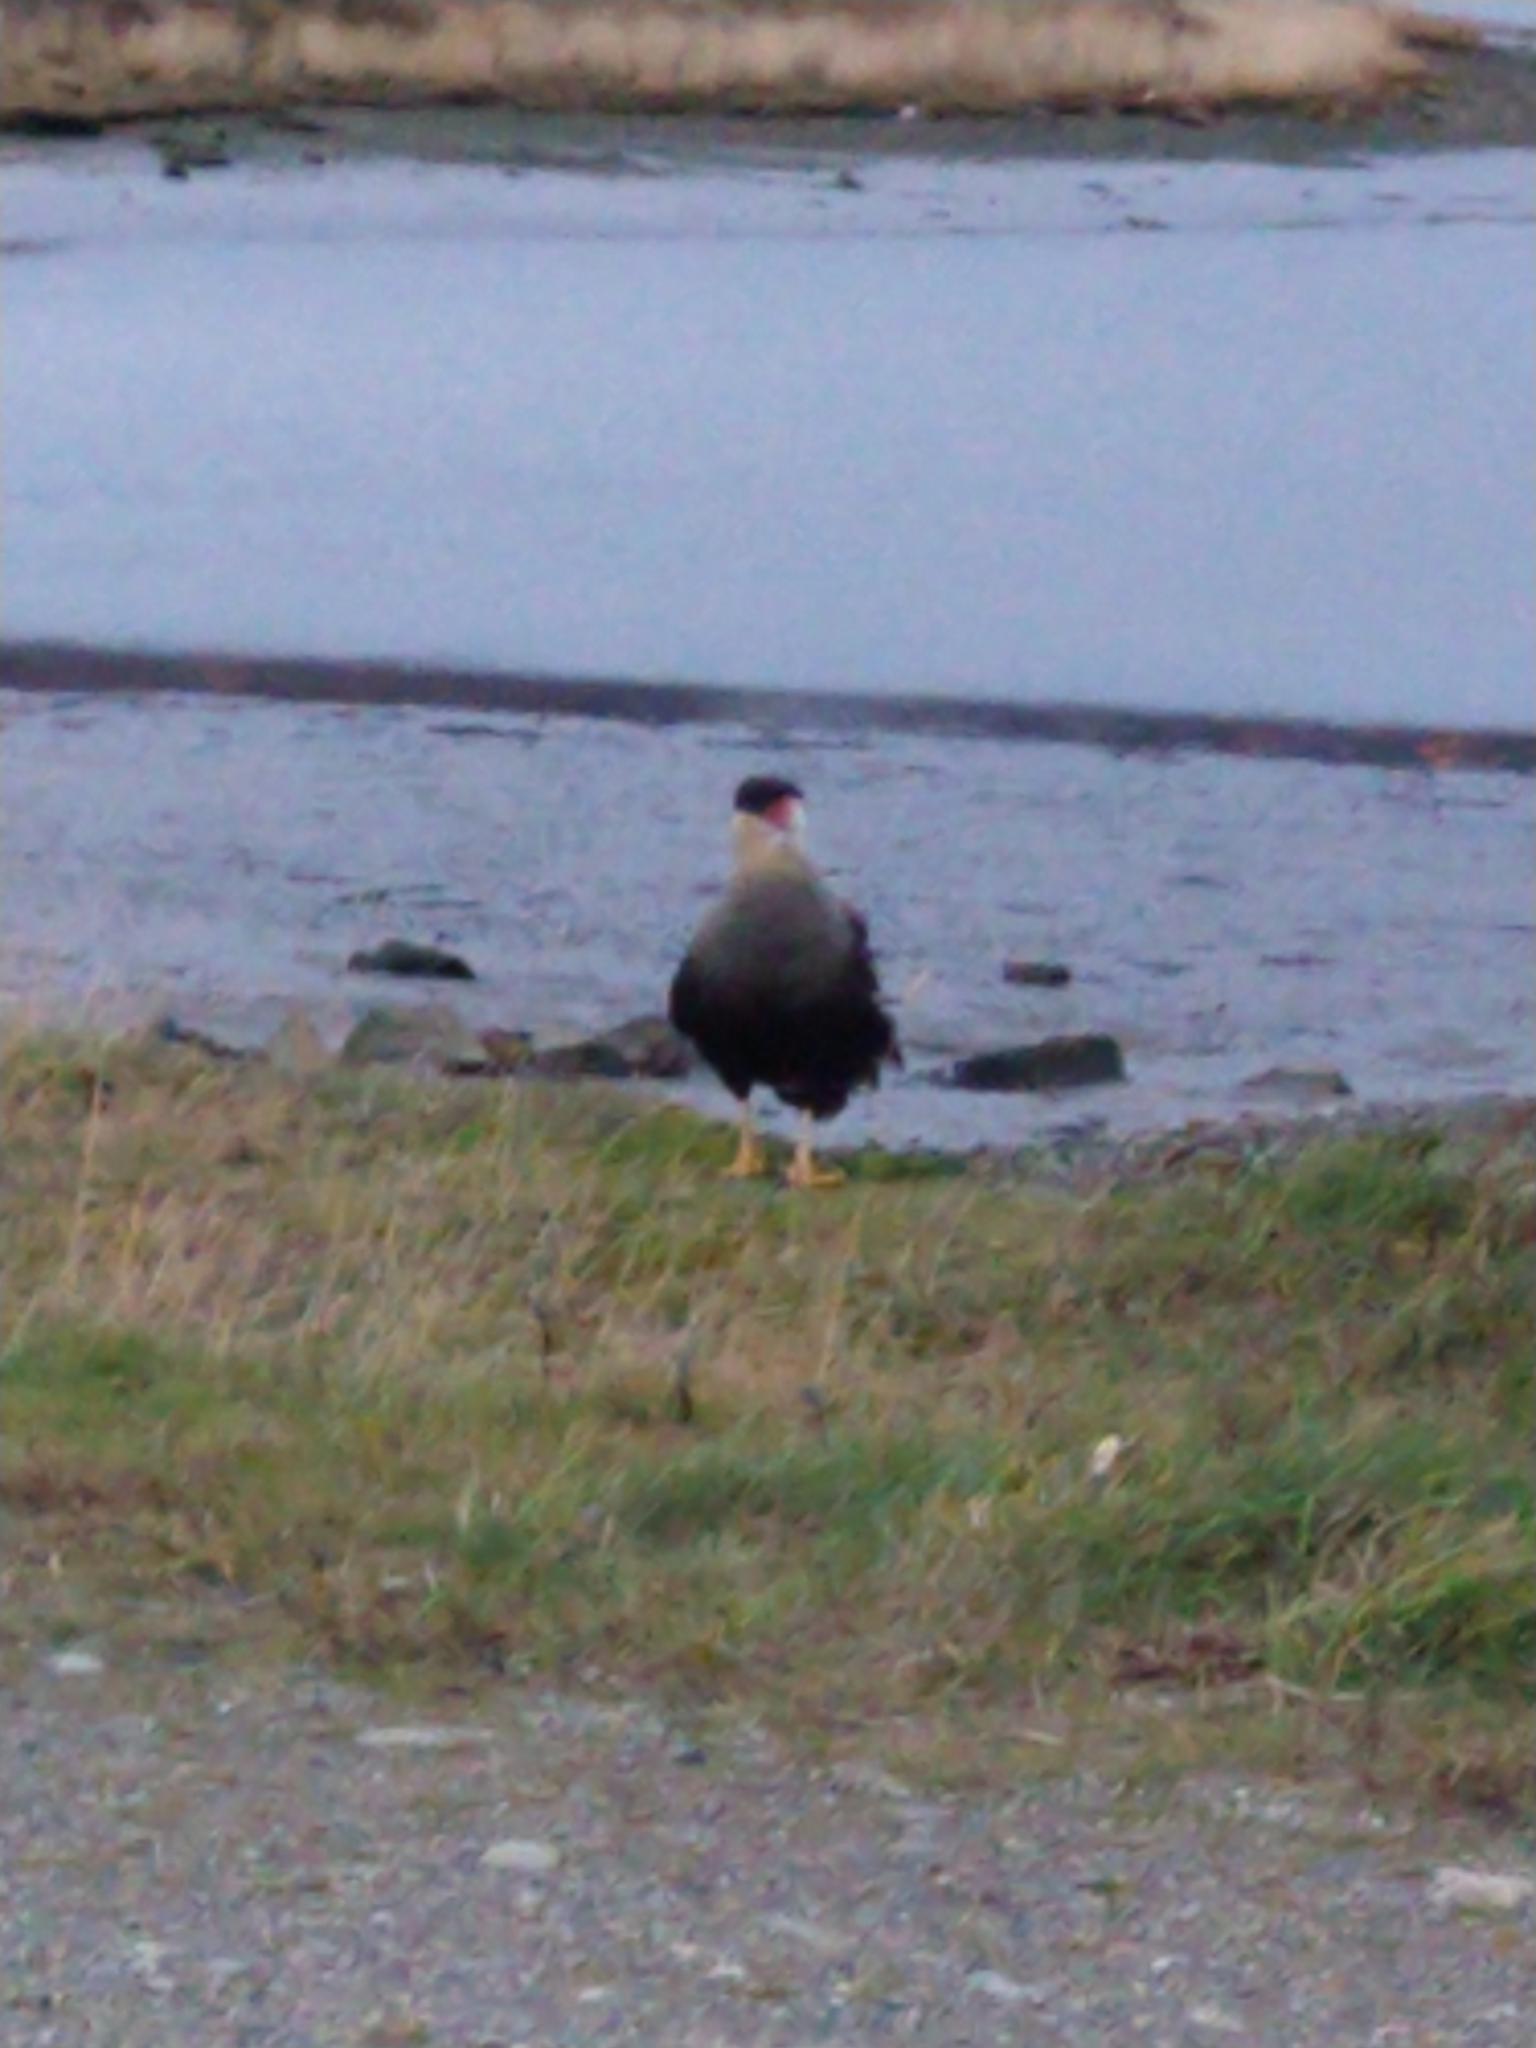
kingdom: Animalia
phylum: Chordata
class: Aves
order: Falconiformes
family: Falconidae
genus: Caracara
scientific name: Caracara plancus
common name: Southern caracara
